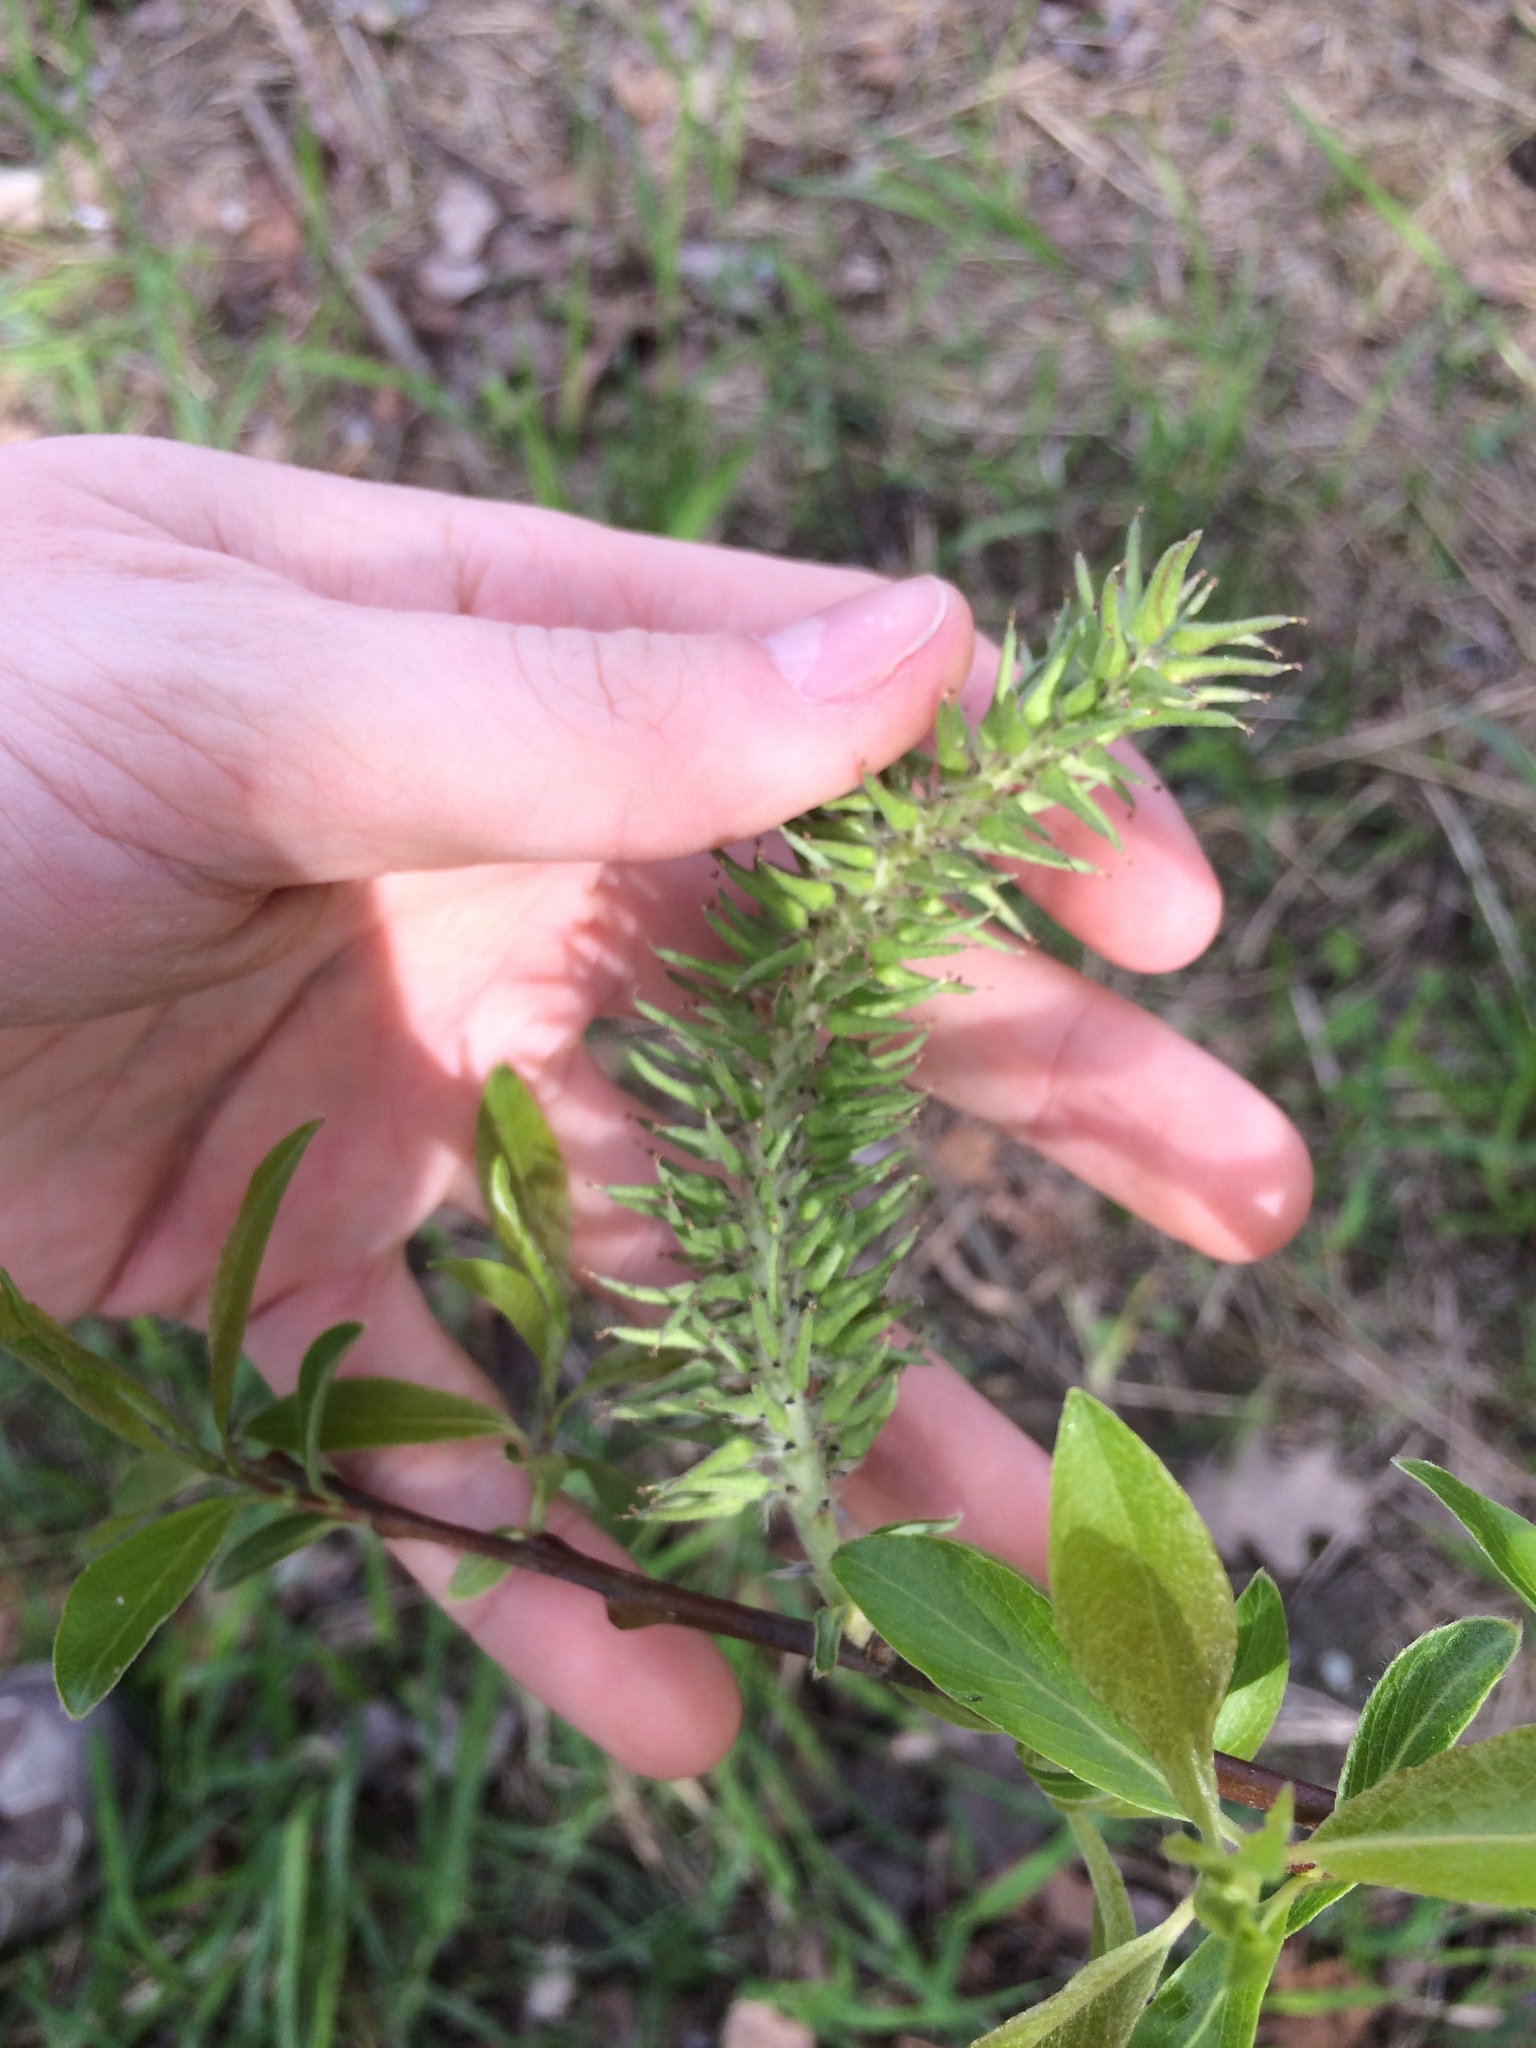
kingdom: Plantae
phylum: Tracheophyta
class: Magnoliopsida
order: Malpighiales
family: Salicaceae
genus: Salix
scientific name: Salix discolor
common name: Glaucous willow
